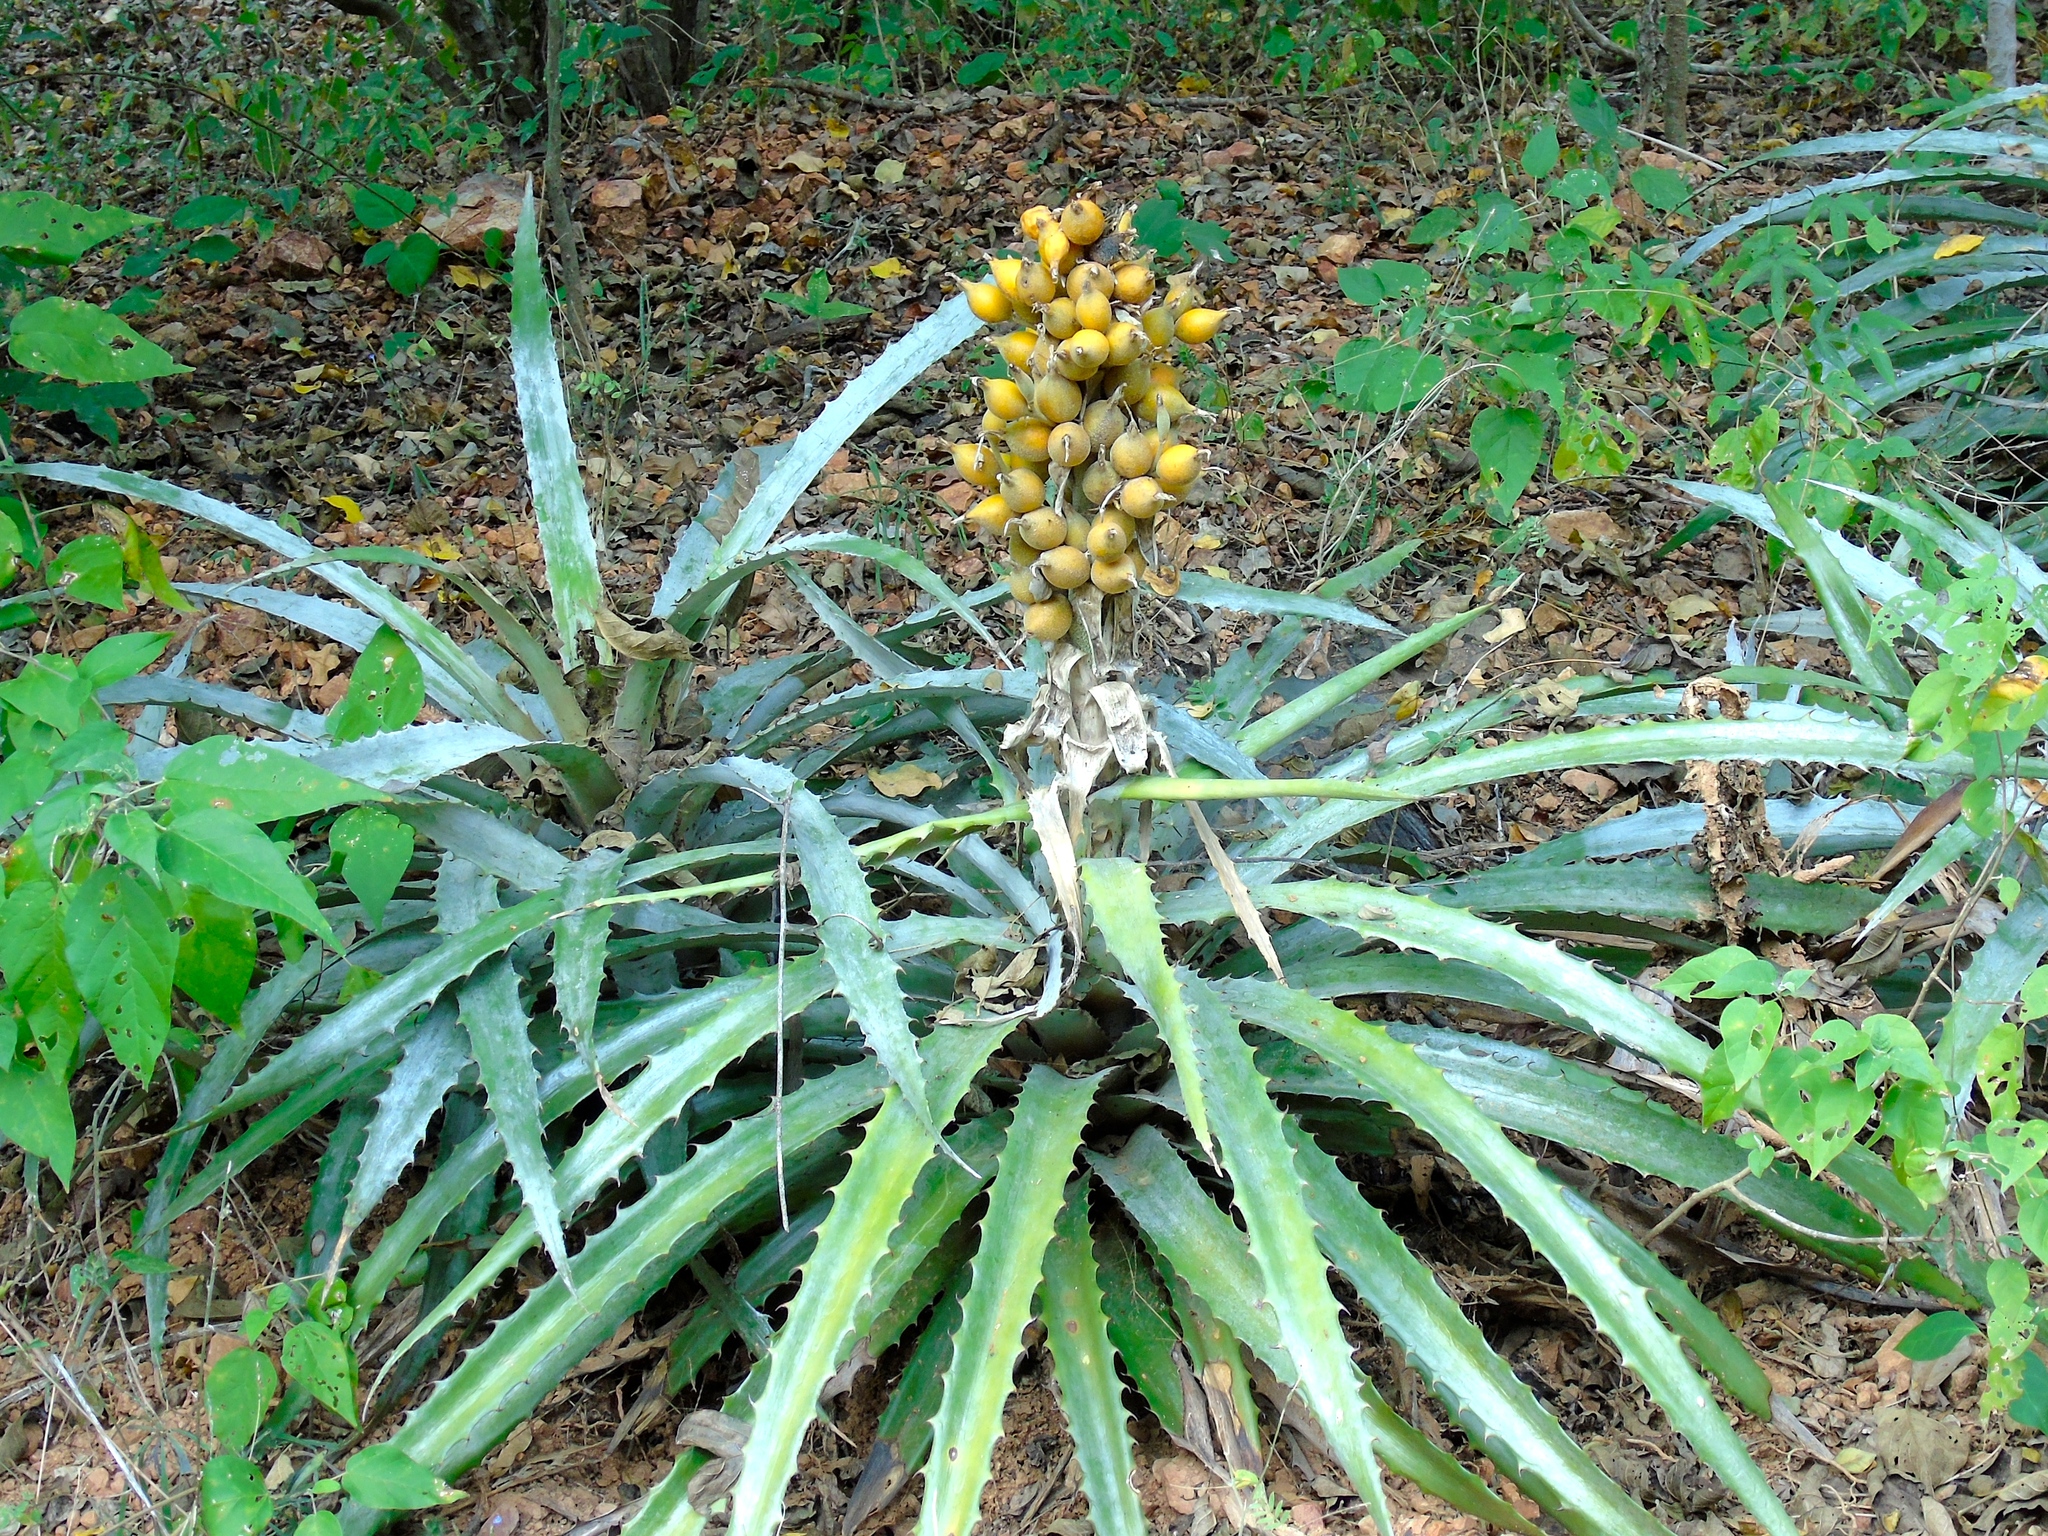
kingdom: Plantae
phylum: Tracheophyta
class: Liliopsida
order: Poales
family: Bromeliaceae
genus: Bromelia
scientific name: Bromelia pinguin
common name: Pinguin
